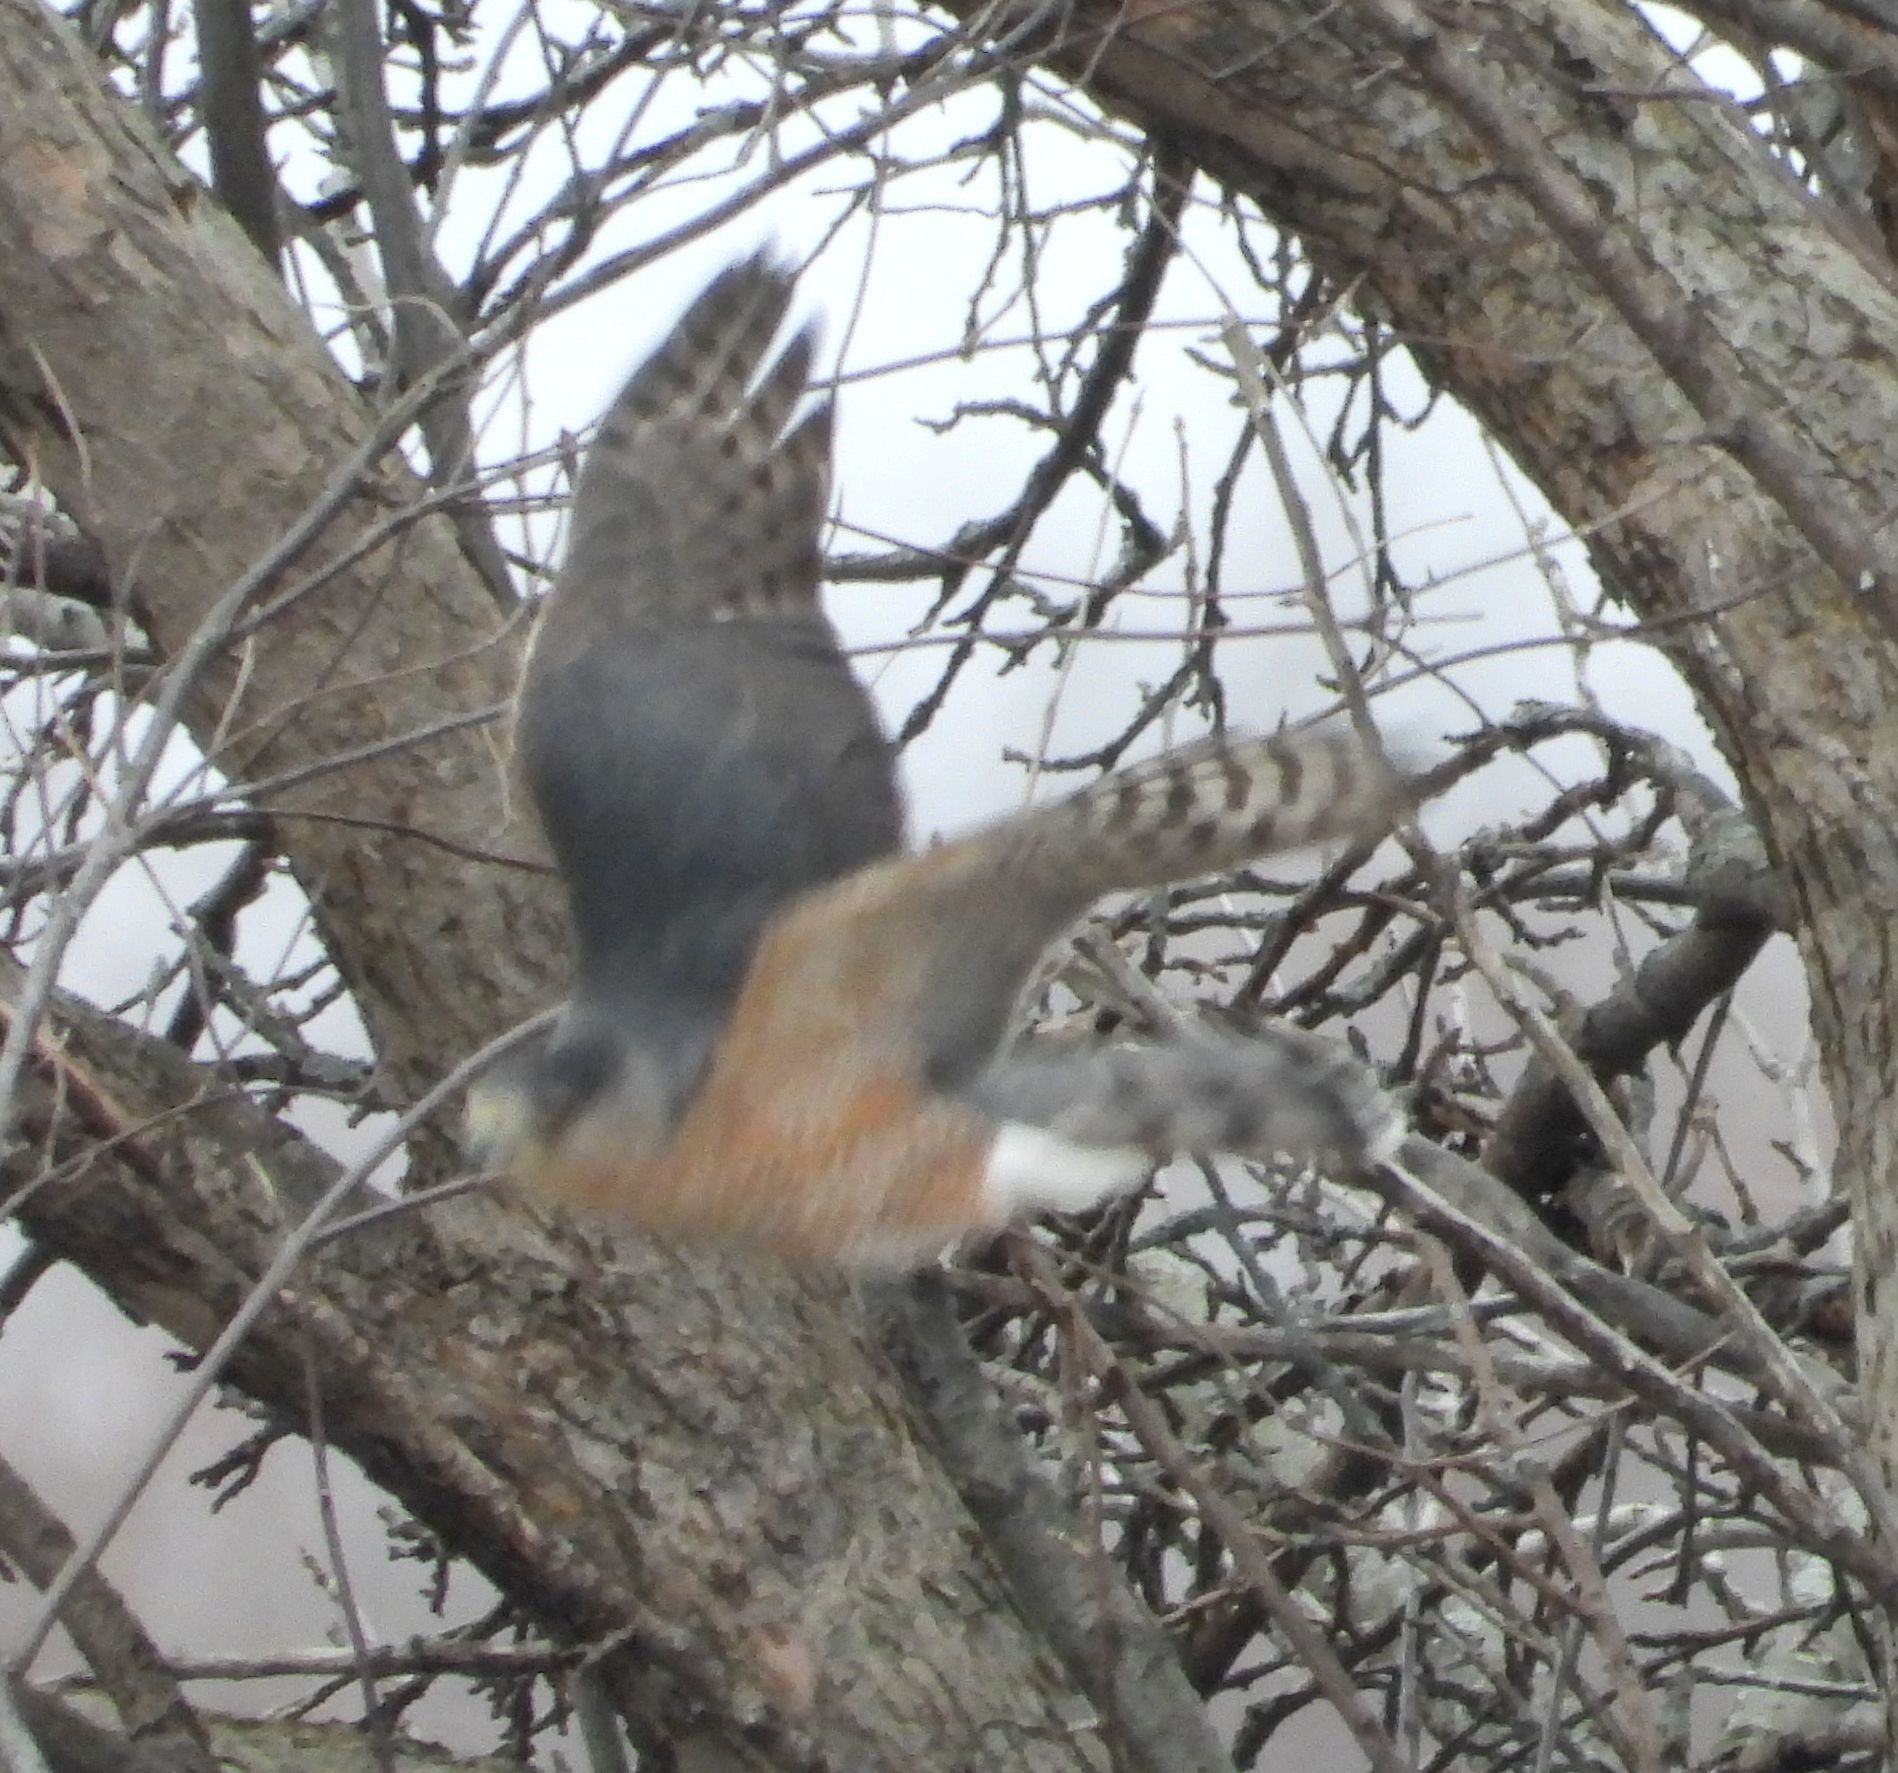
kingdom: Animalia
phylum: Chordata
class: Aves
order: Accipitriformes
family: Accipitridae
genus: Accipiter
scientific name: Accipiter cooperii
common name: Cooper's hawk
